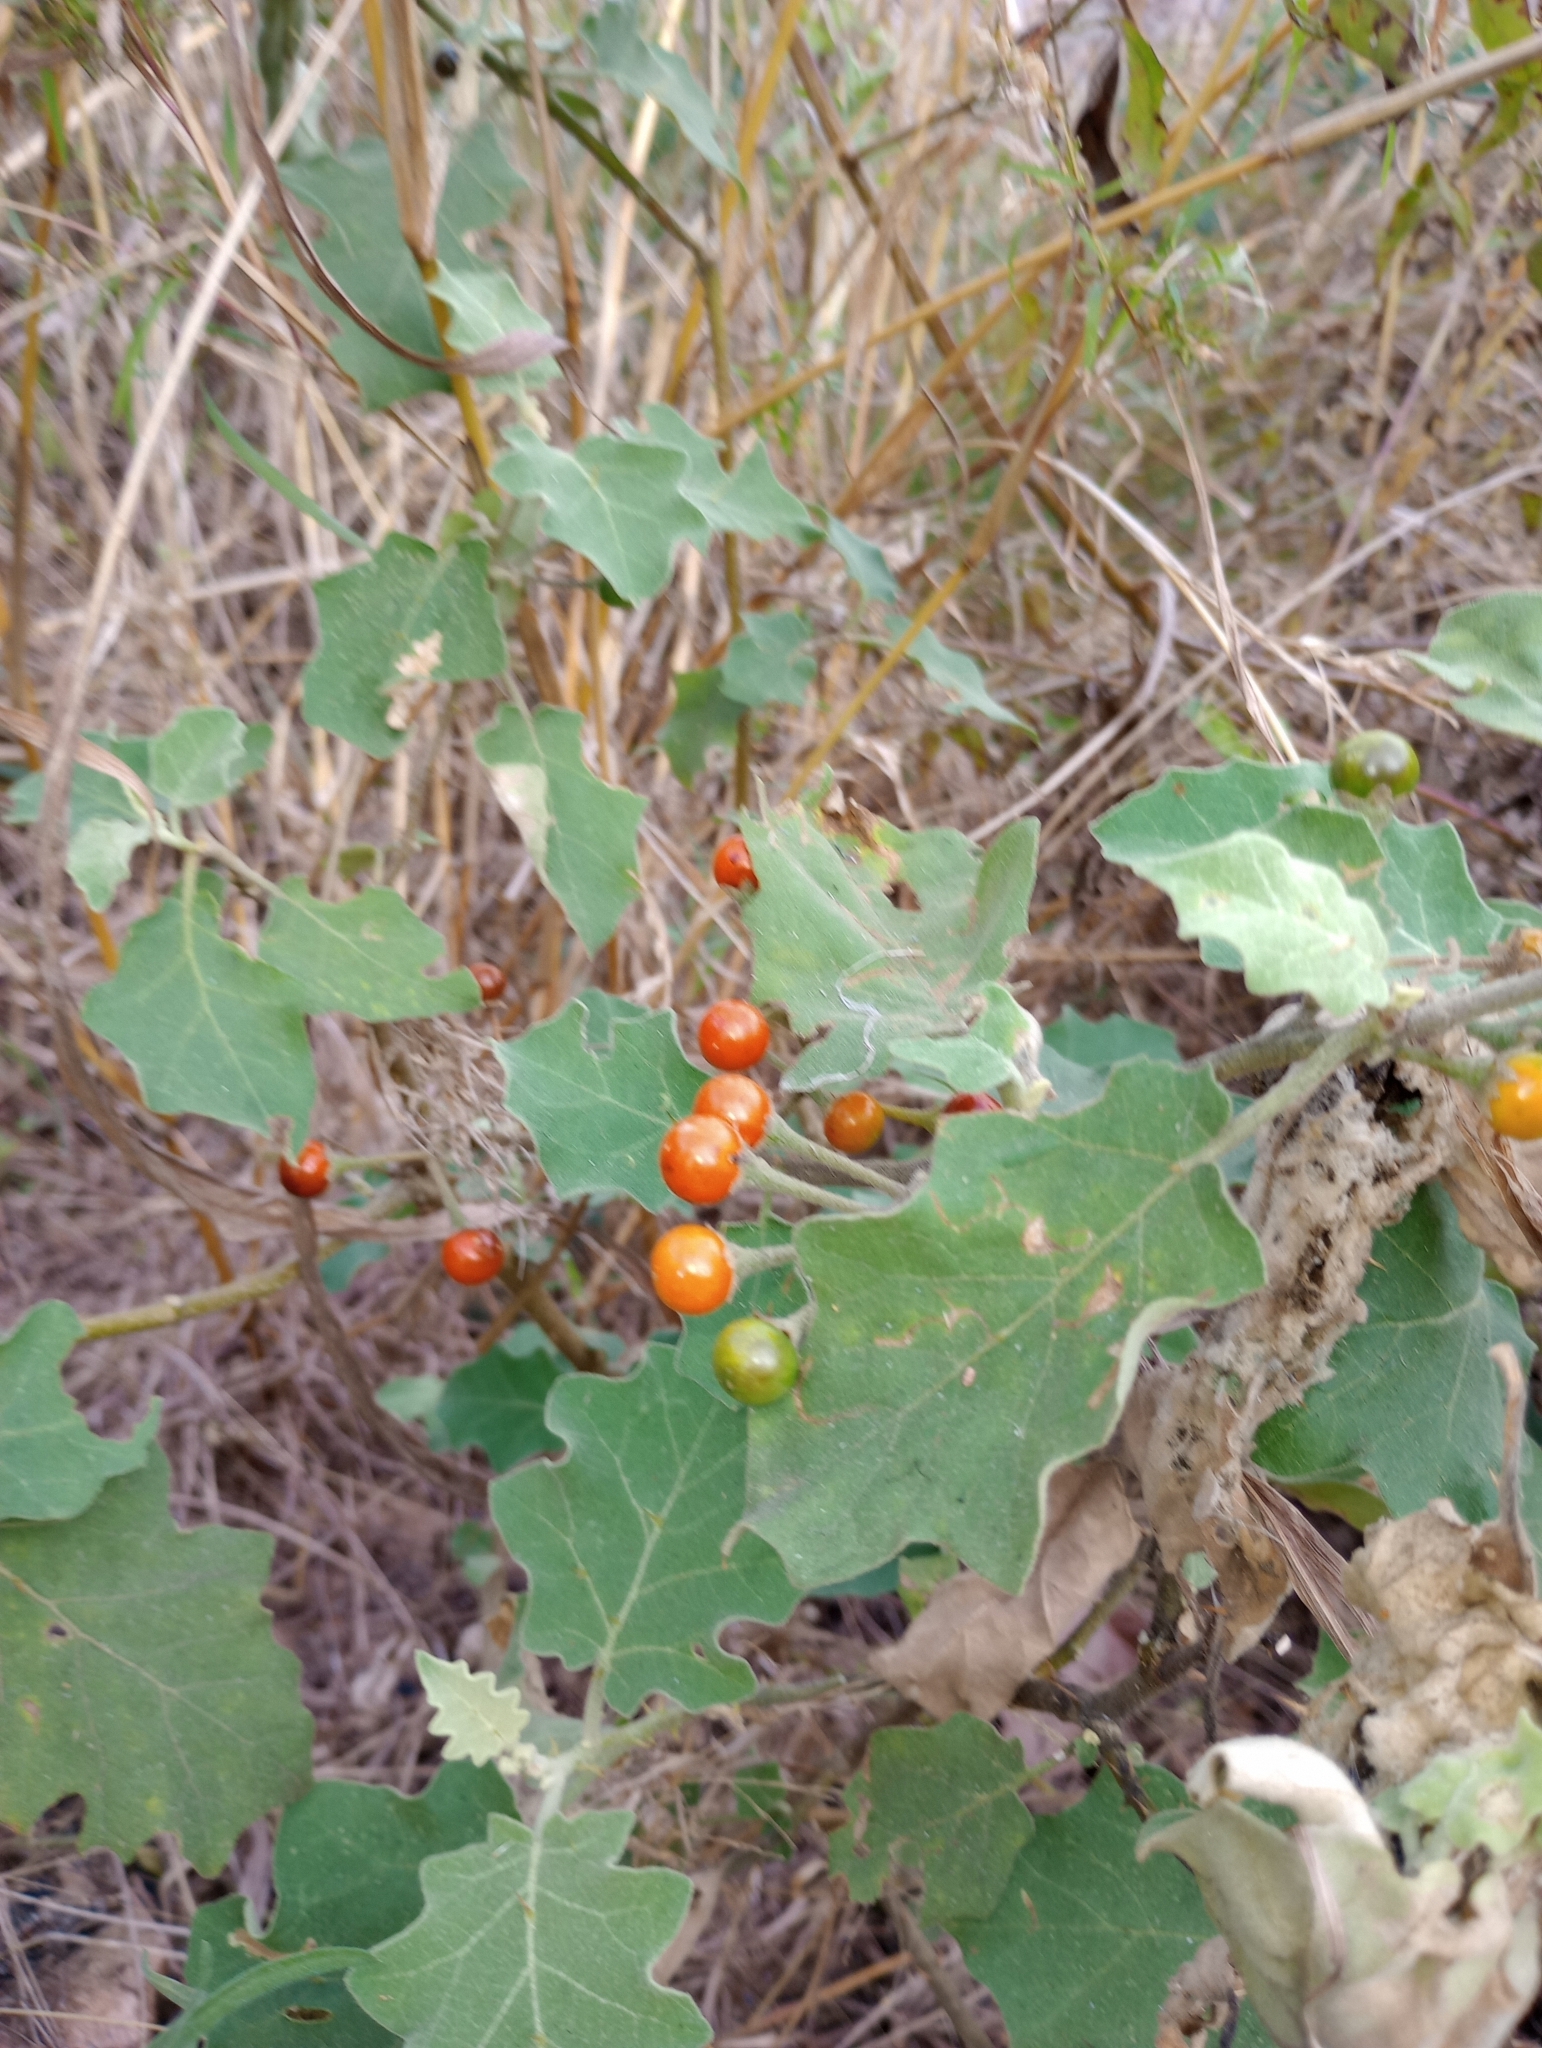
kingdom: Plantae
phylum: Tracheophyta
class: Magnoliopsida
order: Solanales
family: Solanaceae
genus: Solanum
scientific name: Solanum violaceum
